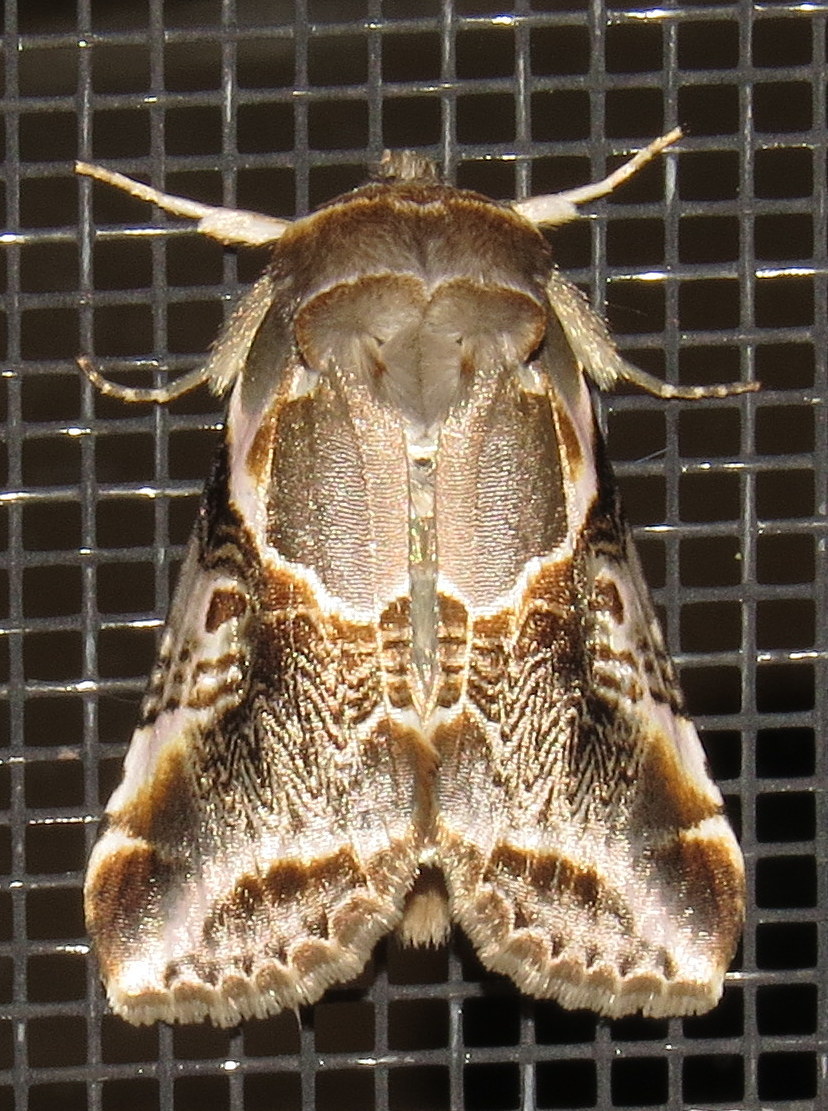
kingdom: Animalia
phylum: Arthropoda
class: Insecta
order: Lepidoptera
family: Drepanidae
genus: Habrosyne
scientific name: Habrosyne scripta
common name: Lettered habrosyne moth
